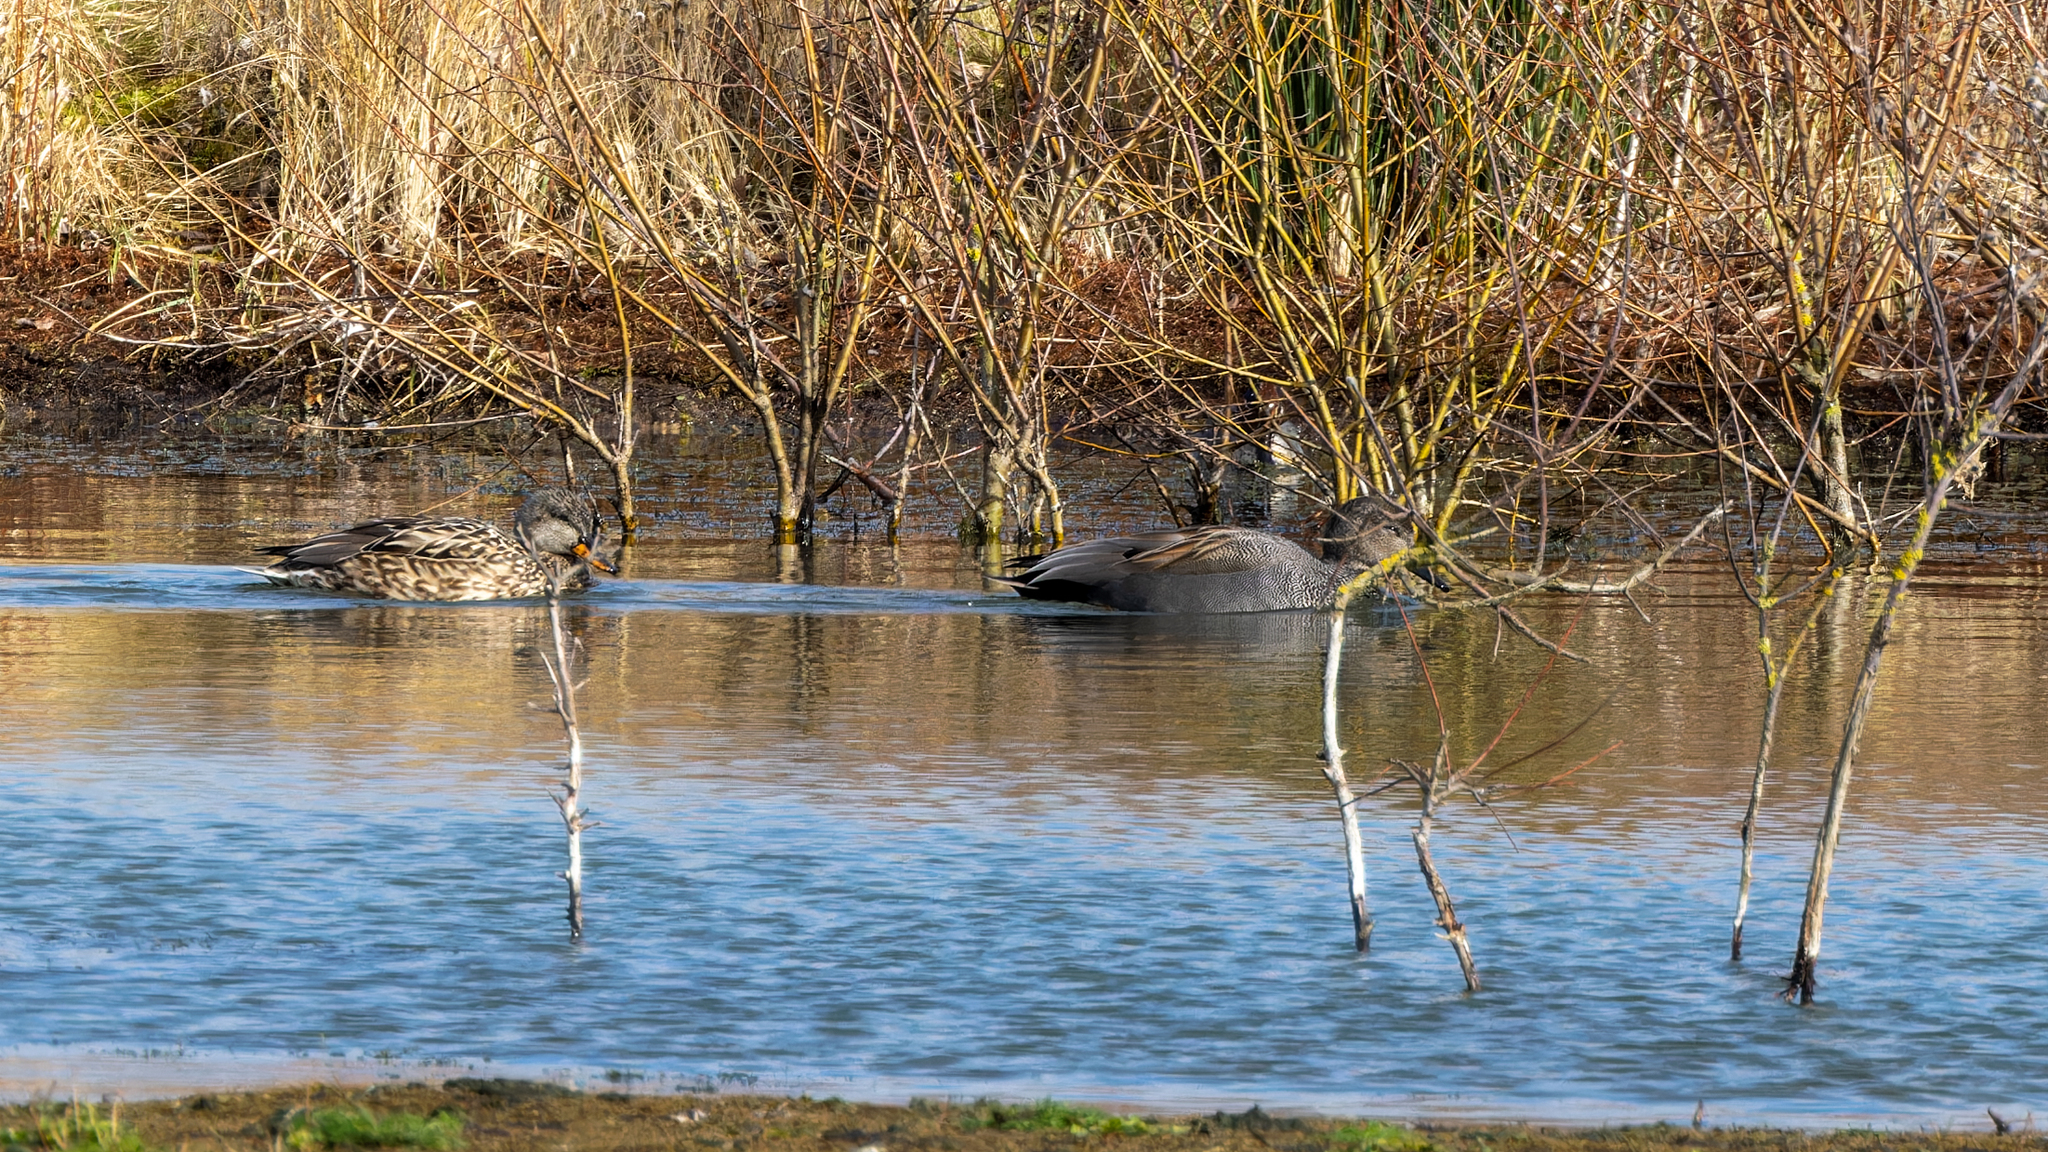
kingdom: Animalia
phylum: Chordata
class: Aves
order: Anseriformes
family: Anatidae
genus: Mareca
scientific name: Mareca strepera
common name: Gadwall
